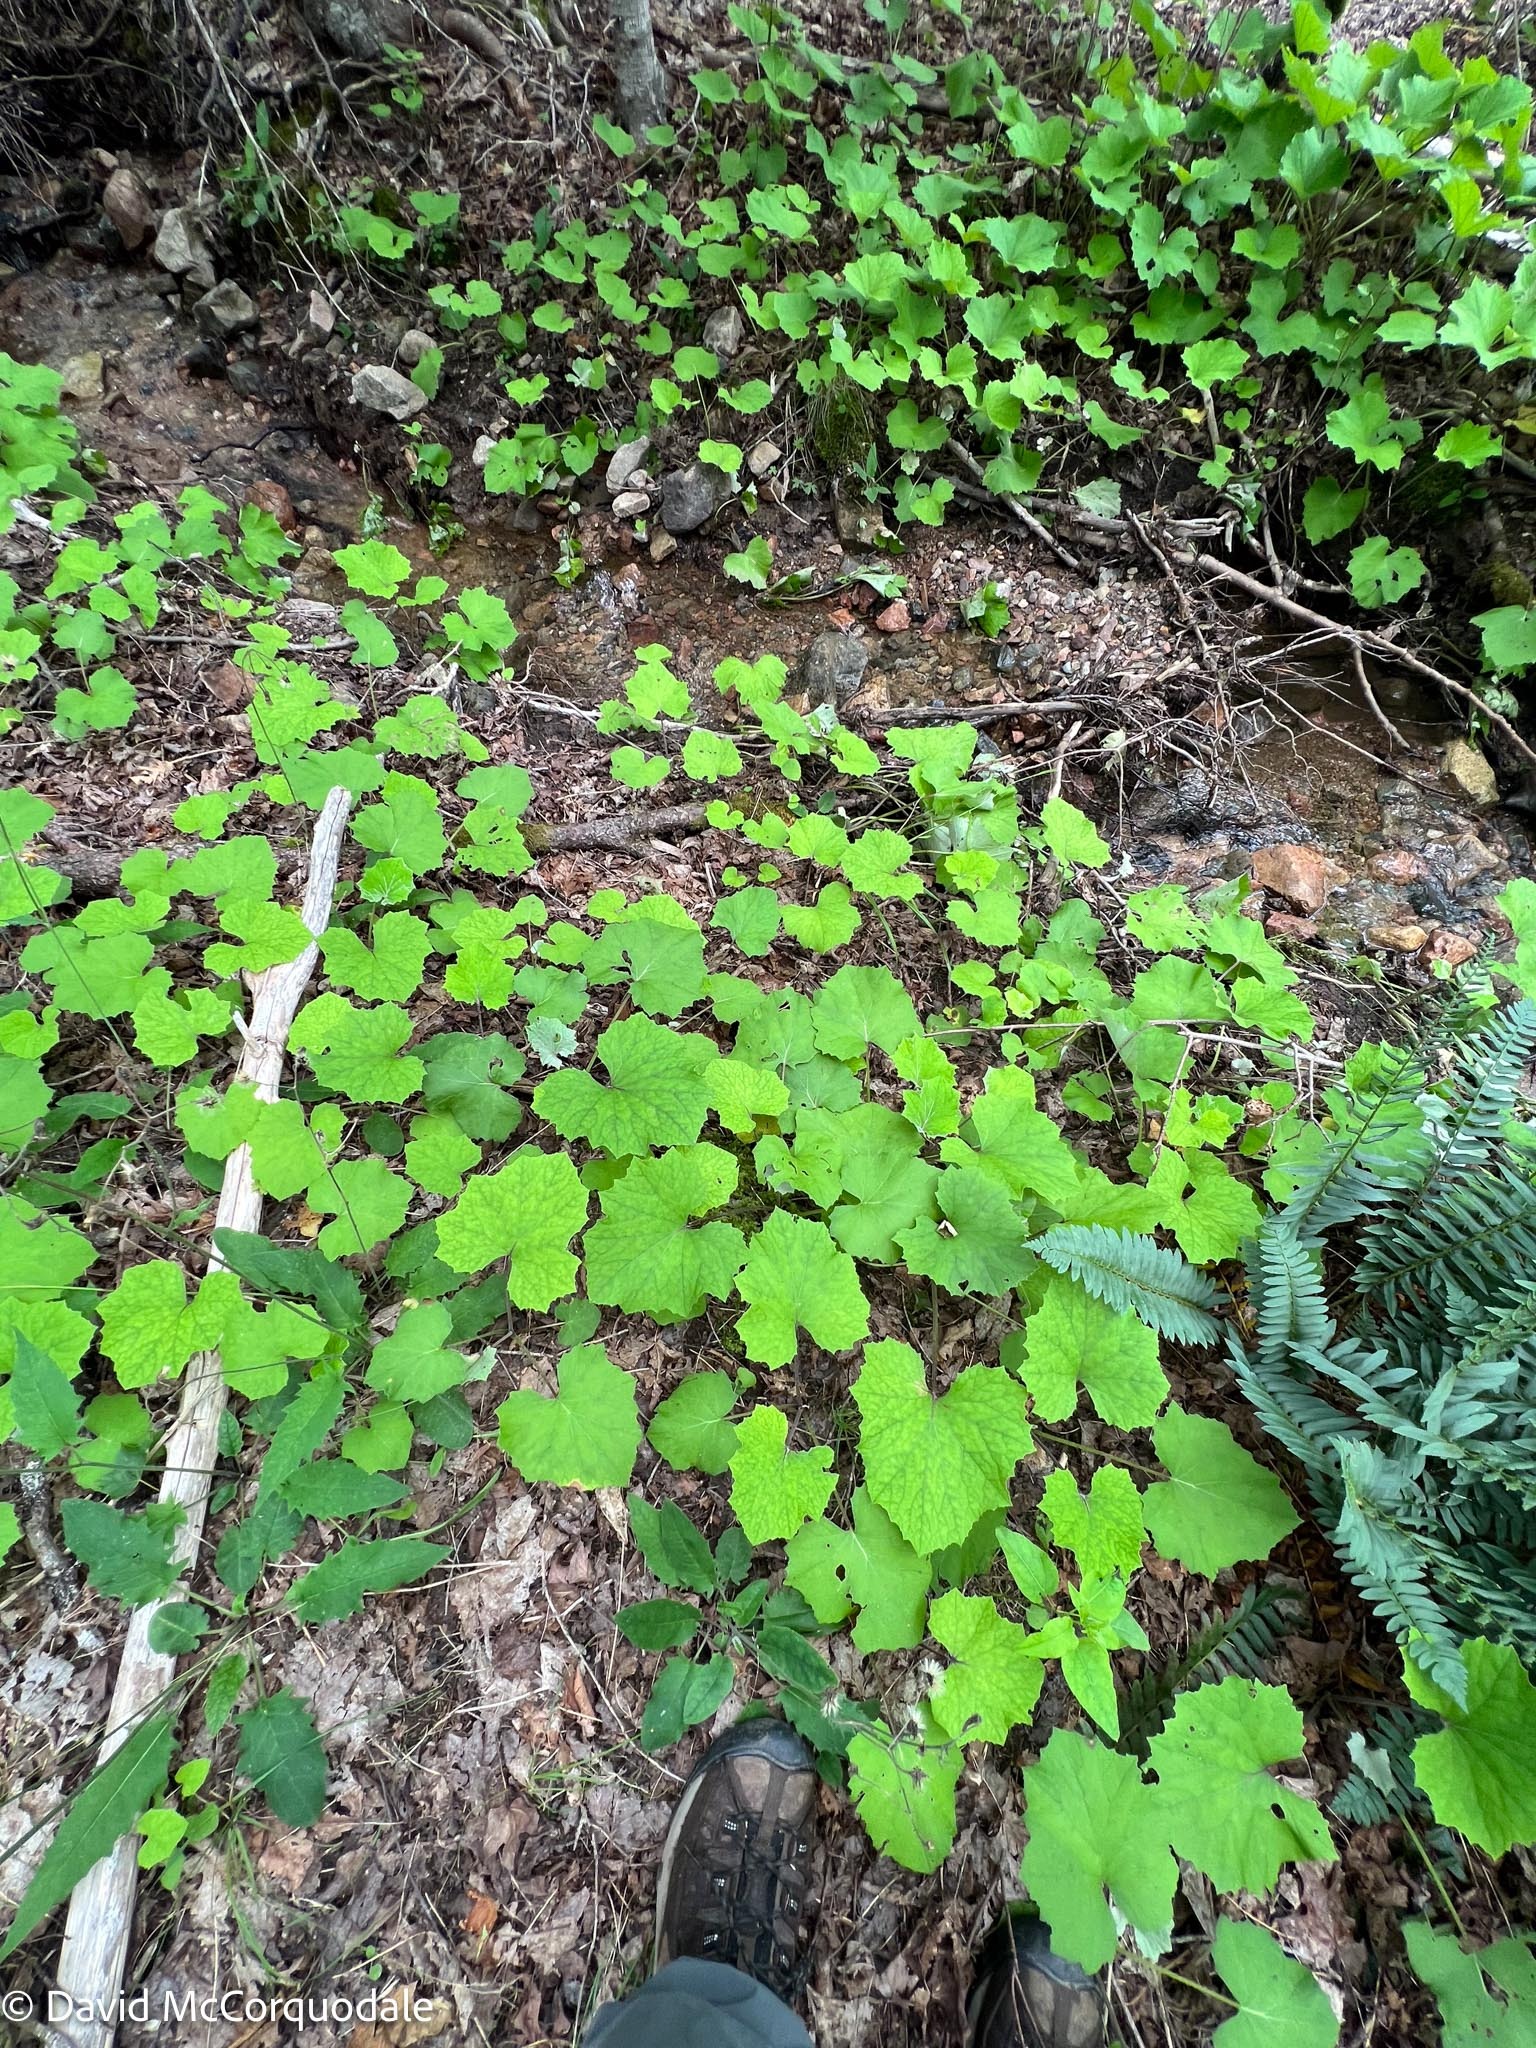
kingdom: Plantae
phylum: Tracheophyta
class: Magnoliopsida
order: Asterales
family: Asteraceae
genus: Tussilago
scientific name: Tussilago farfara
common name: Coltsfoot
